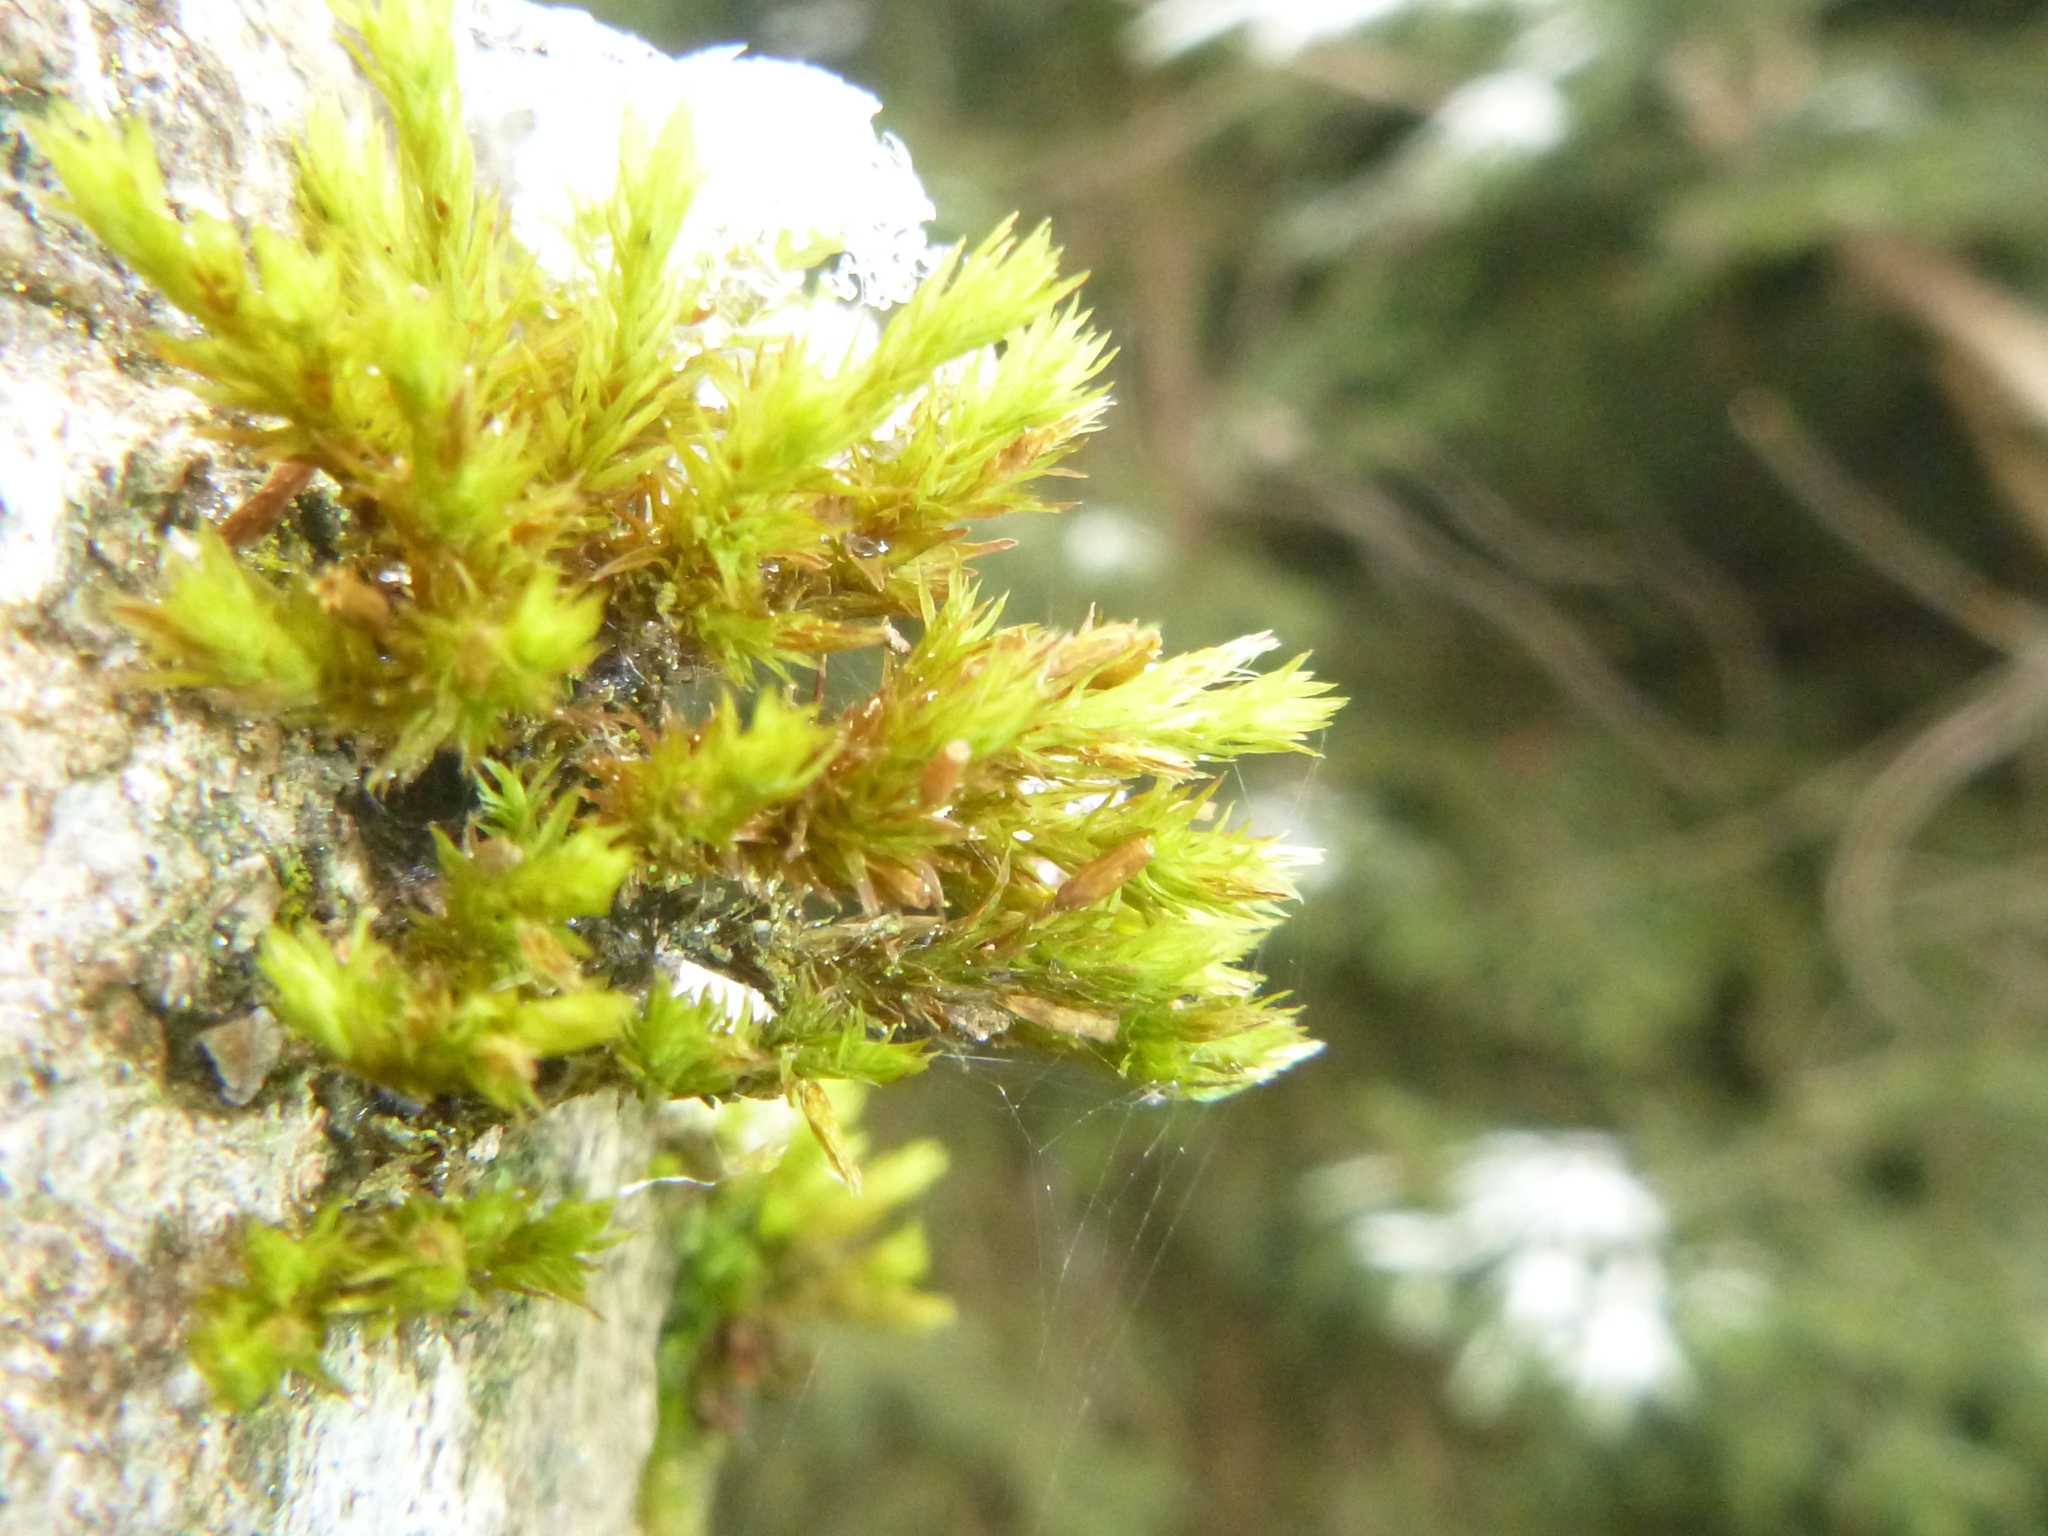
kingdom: Plantae
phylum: Bryophyta
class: Bryopsida
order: Orthotrichales
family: Orthotrichaceae
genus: Lewinskya
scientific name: Lewinskya speciosa
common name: Showy bristle moss
